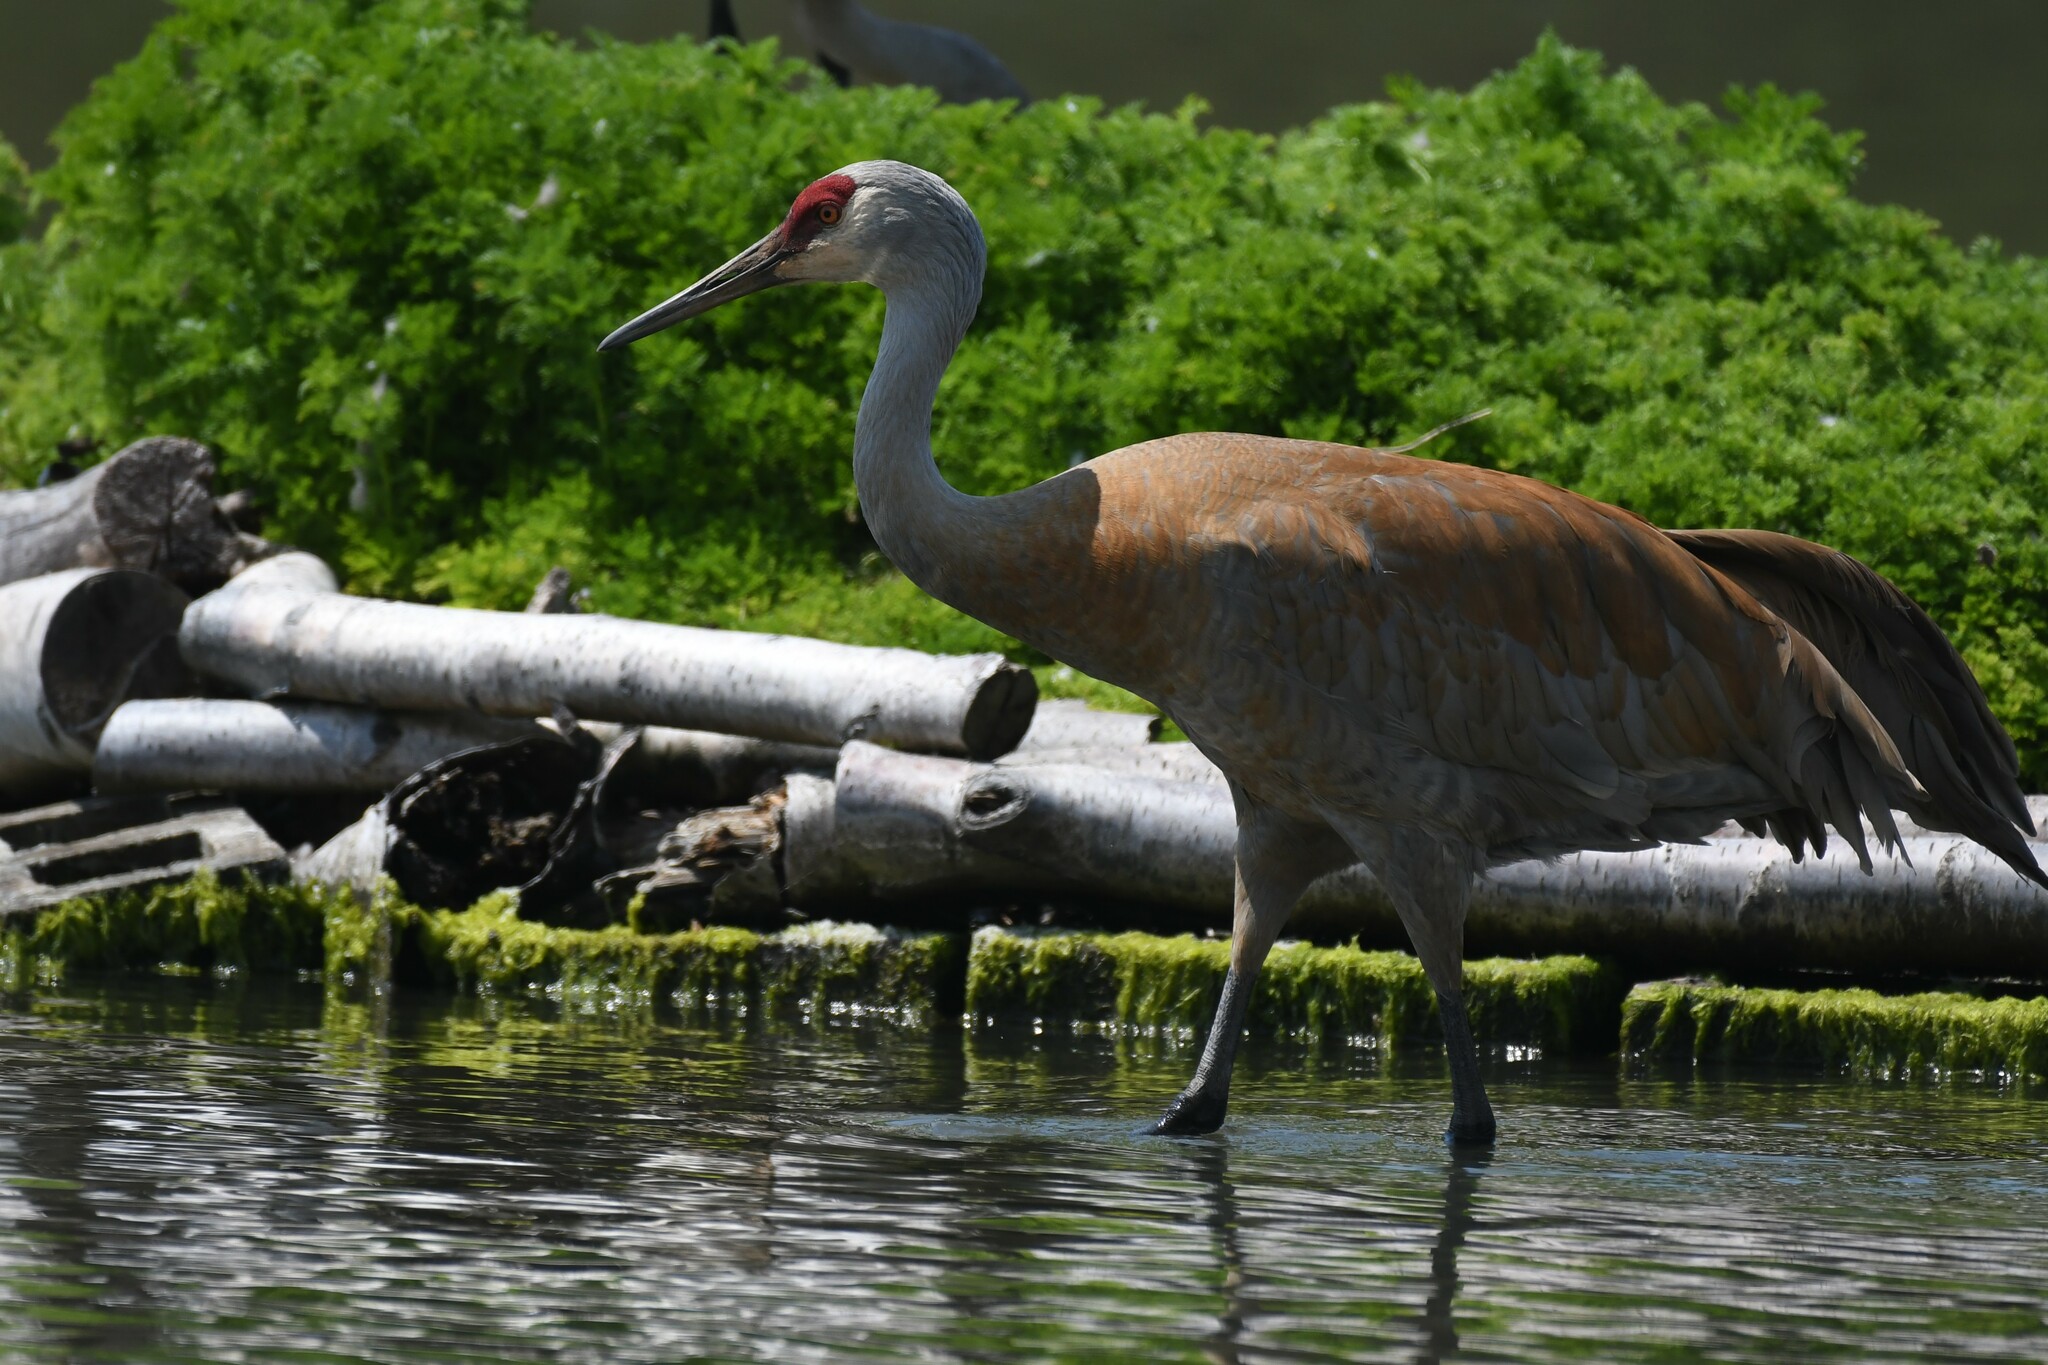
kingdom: Animalia
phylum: Chordata
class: Aves
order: Gruiformes
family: Gruidae
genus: Grus
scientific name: Grus canadensis
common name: Sandhill crane
